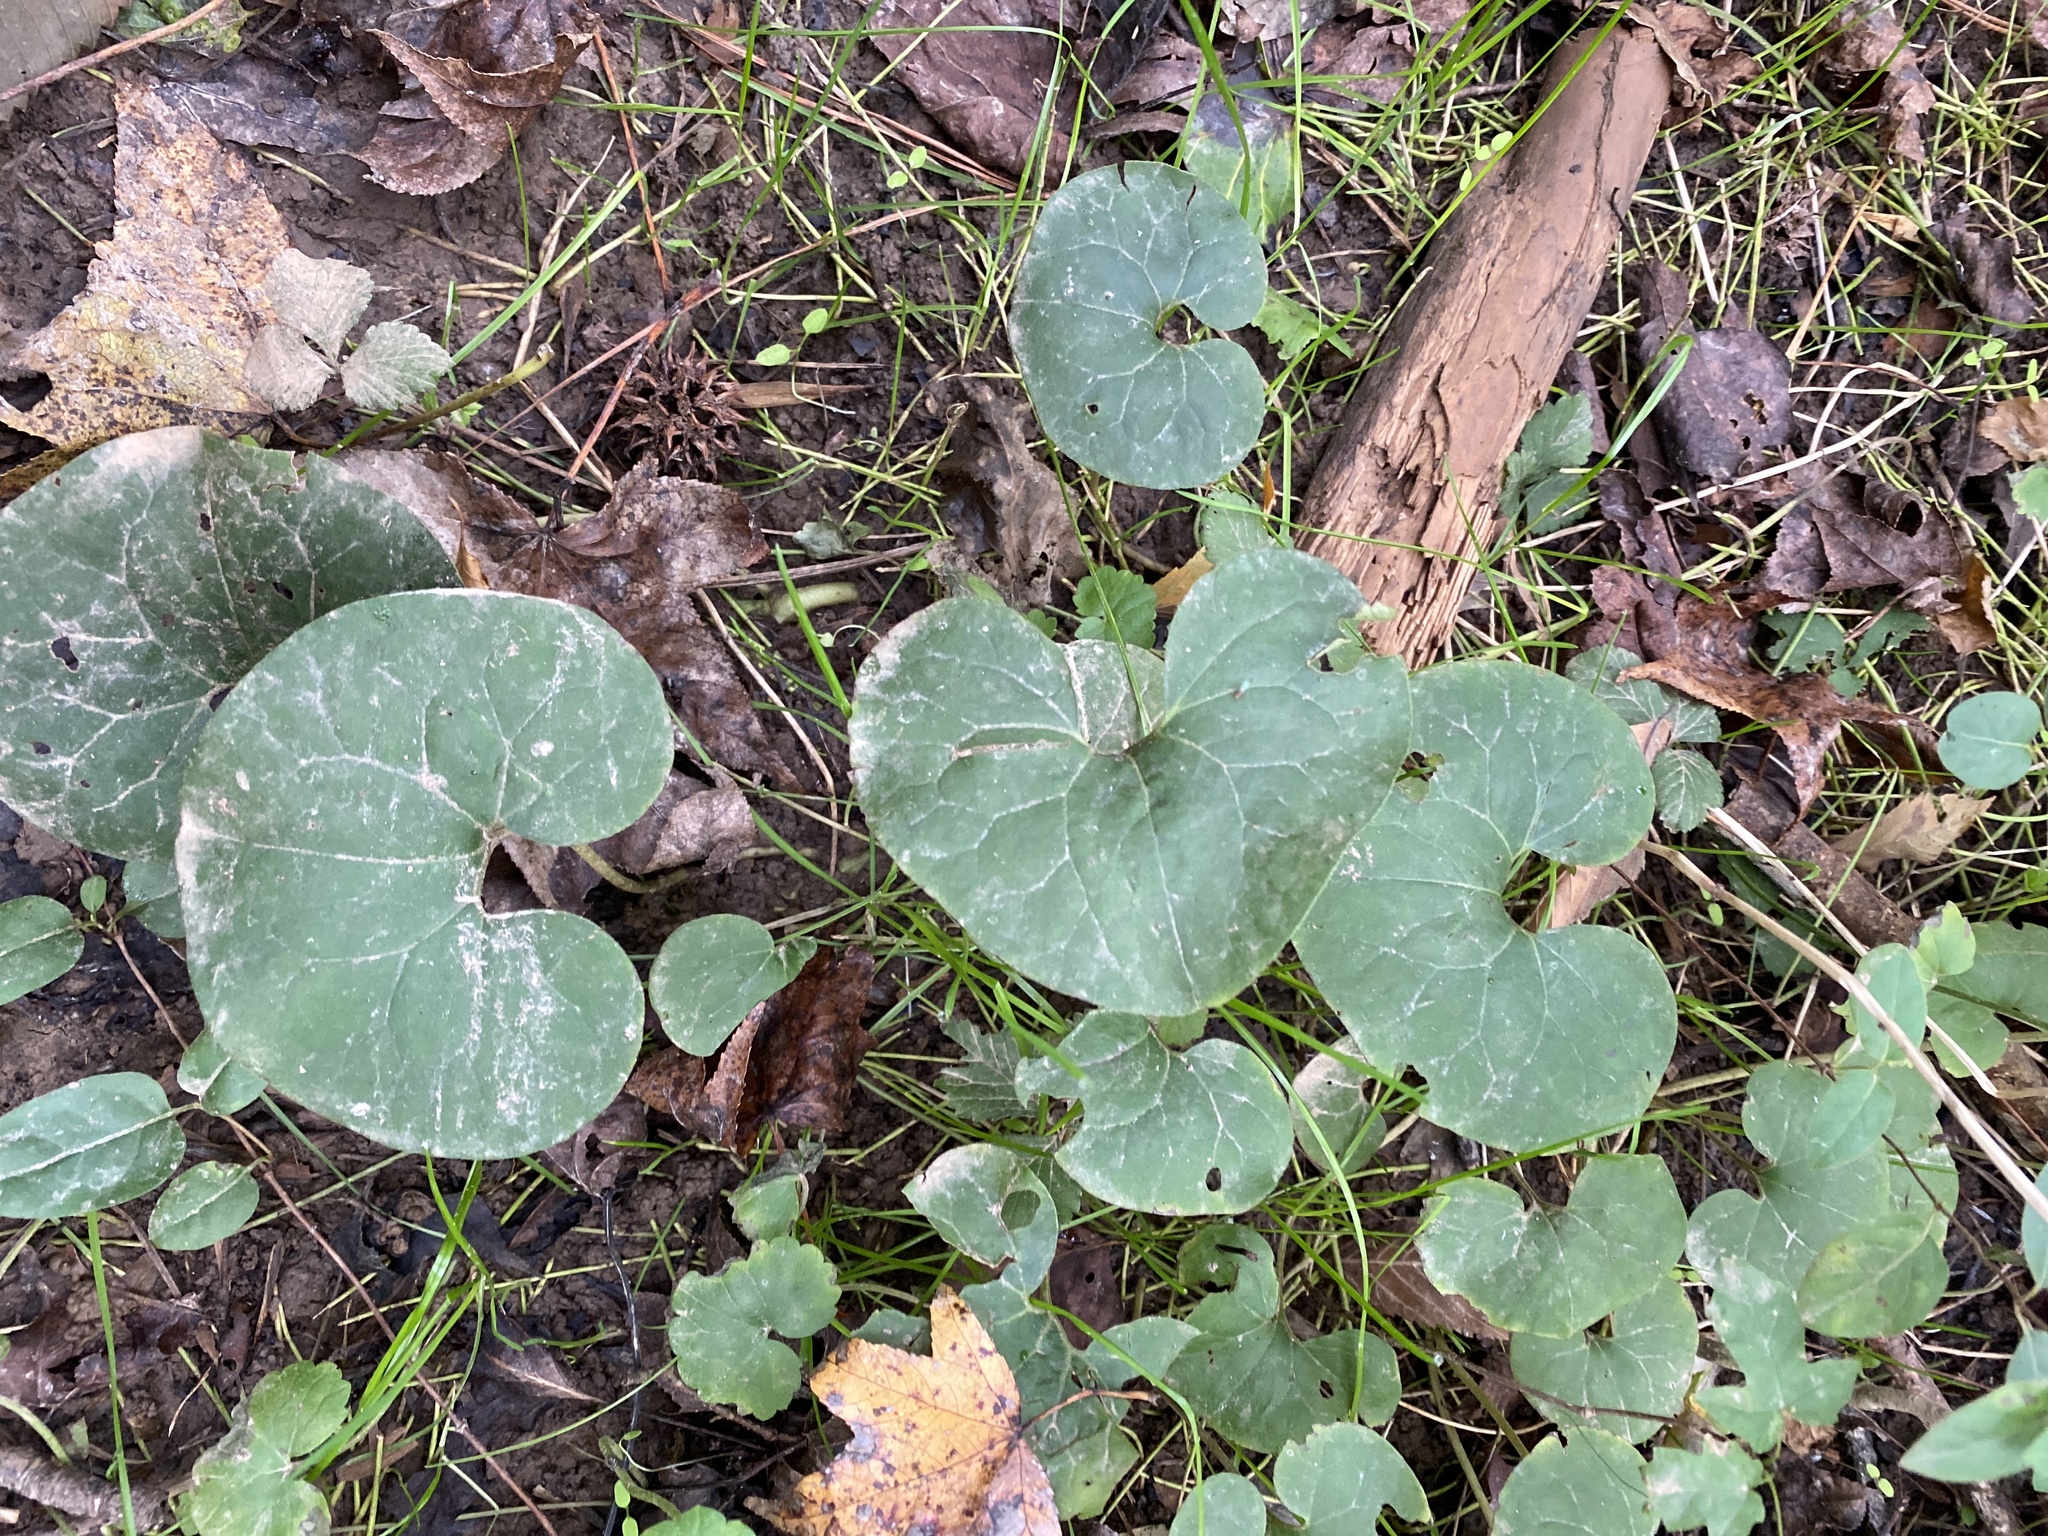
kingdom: Plantae
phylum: Tracheophyta
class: Magnoliopsida
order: Piperales
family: Aristolochiaceae
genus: Asarum
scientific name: Asarum canadense
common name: Wild ginger
